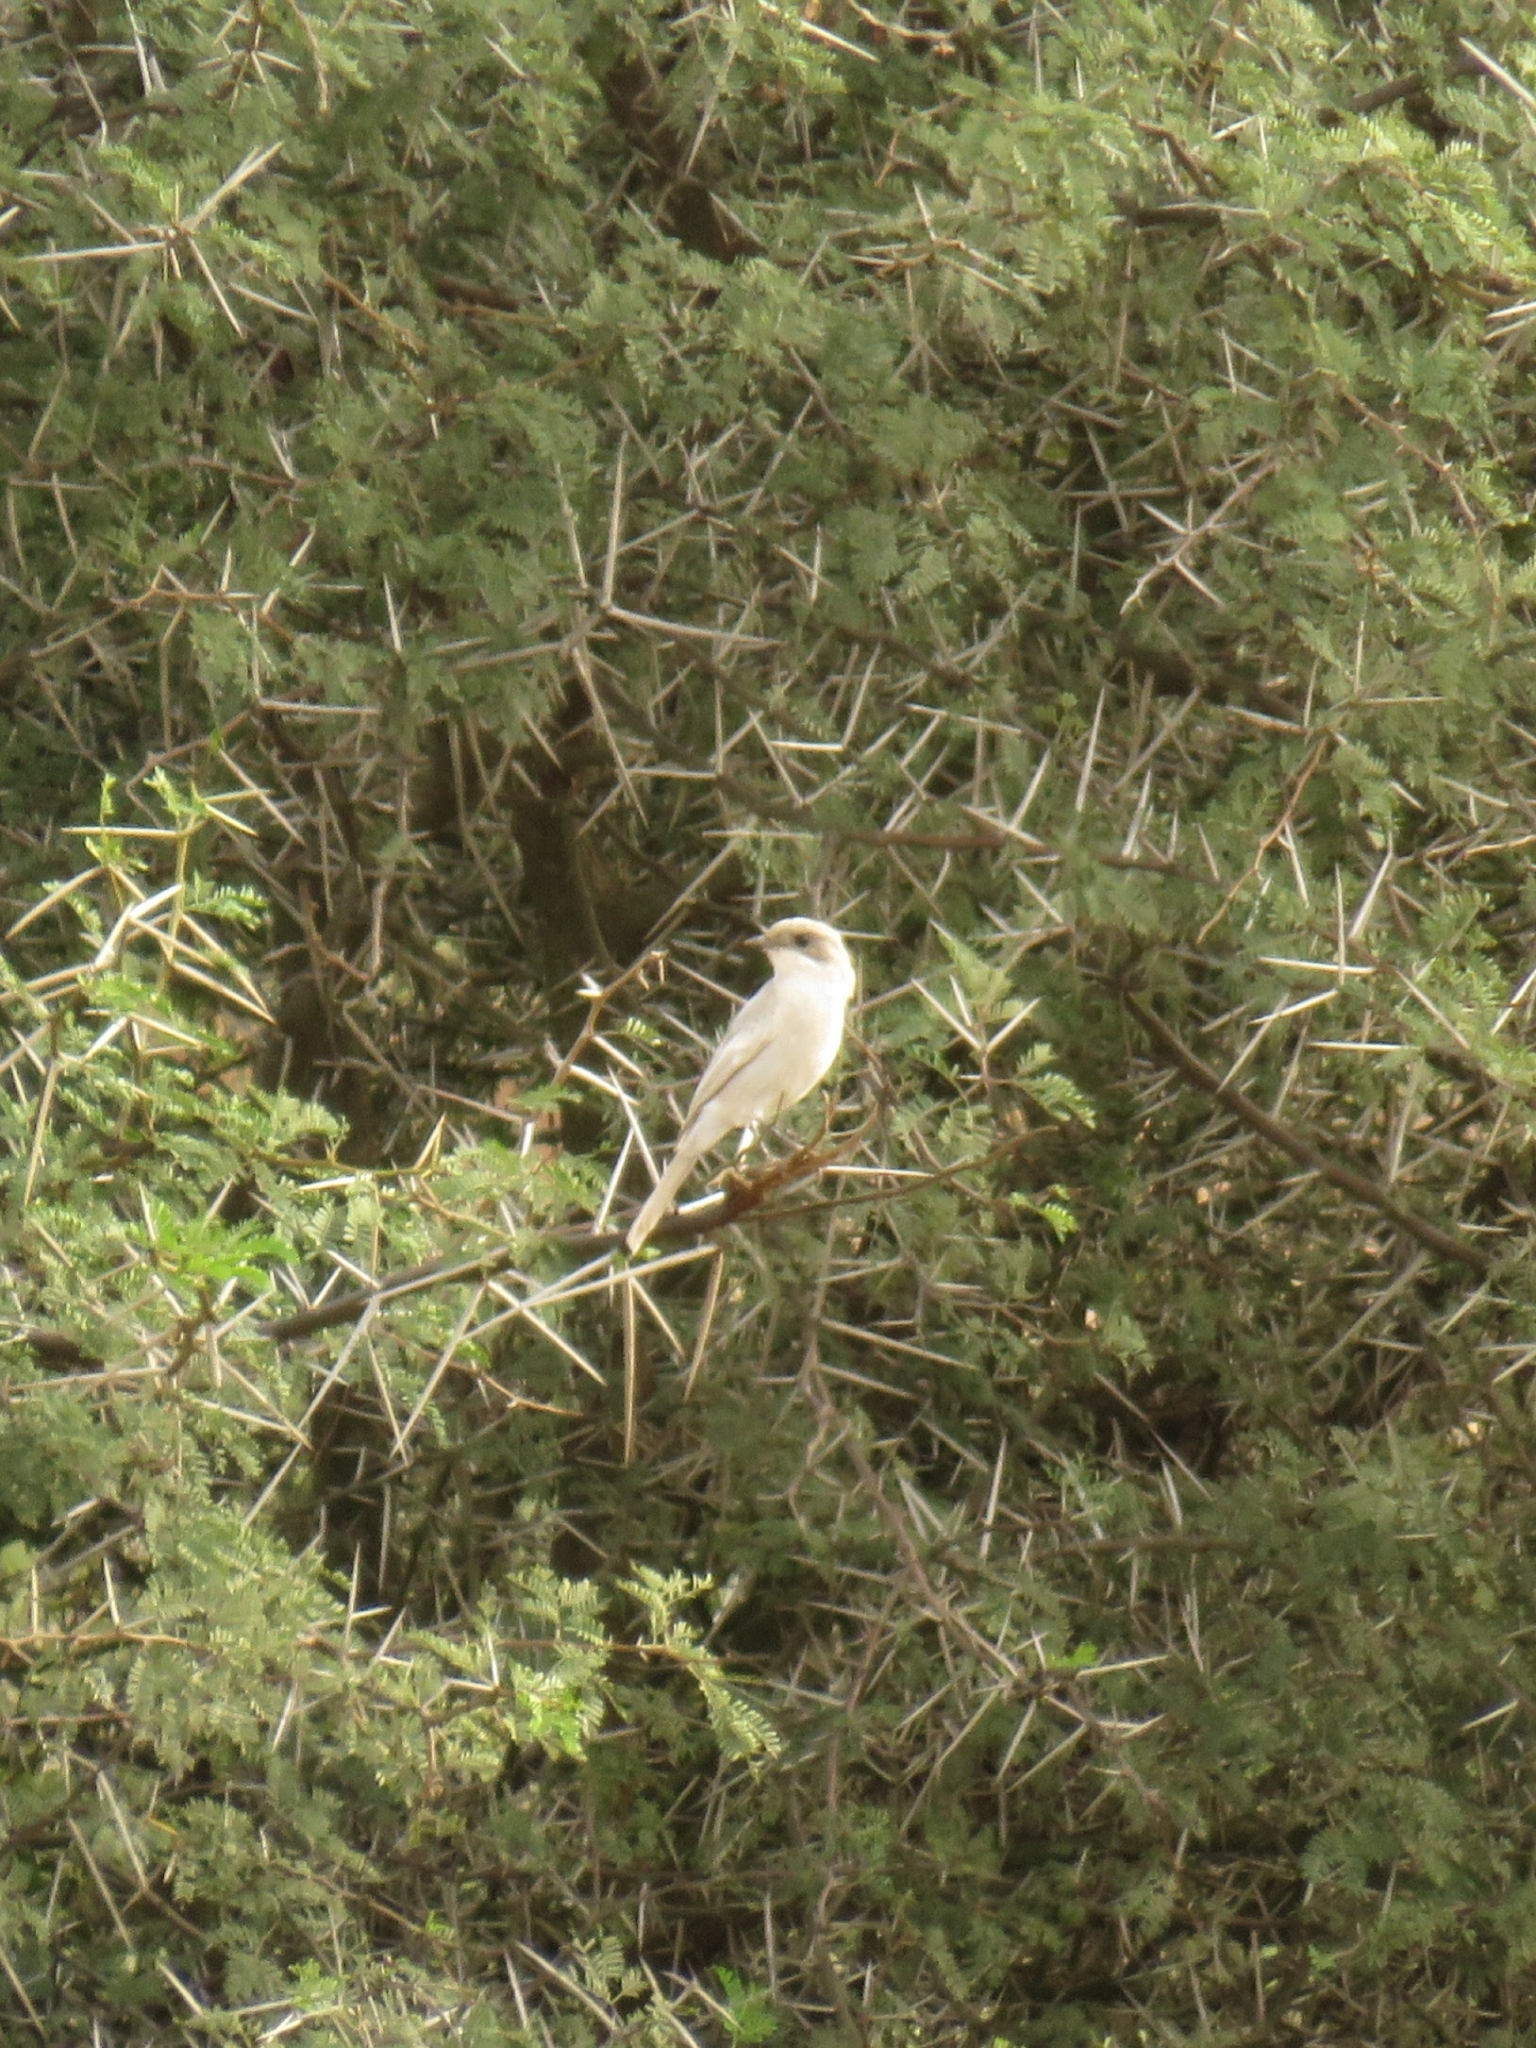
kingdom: Animalia
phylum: Chordata
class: Aves
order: Passeriformes
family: Muscicapidae
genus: Sigelus
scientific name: Sigelus silens
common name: Fiscal flycatcher
